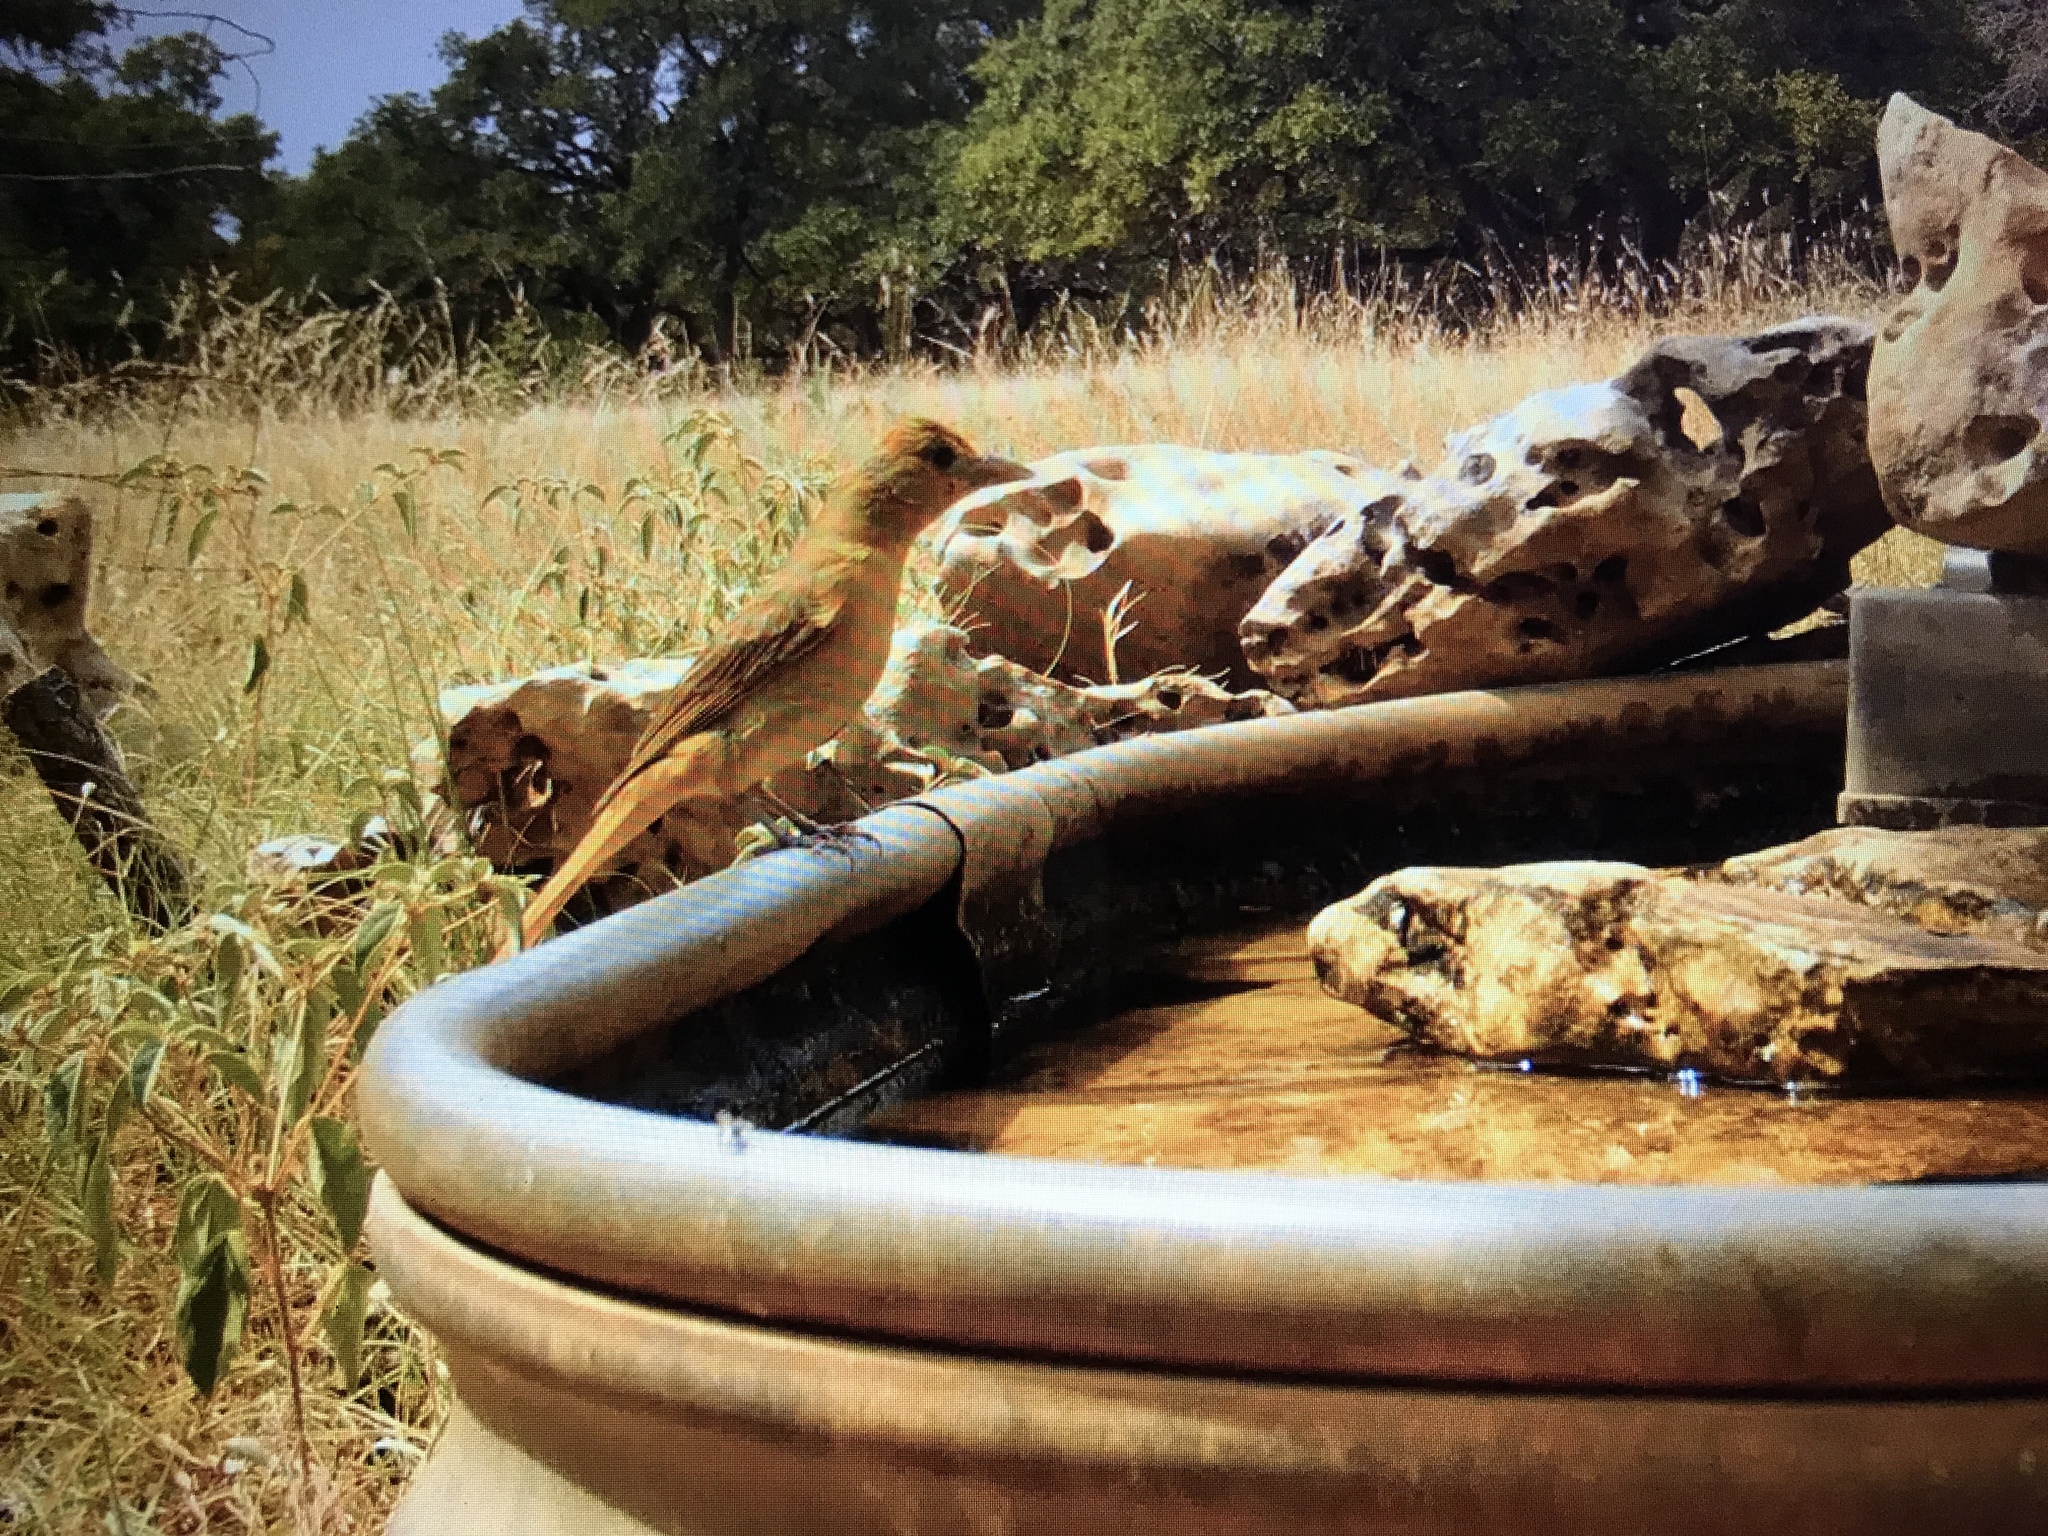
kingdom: Animalia
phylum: Chordata
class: Aves
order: Passeriformes
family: Cardinalidae
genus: Piranga
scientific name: Piranga rubra
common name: Summer tanager
